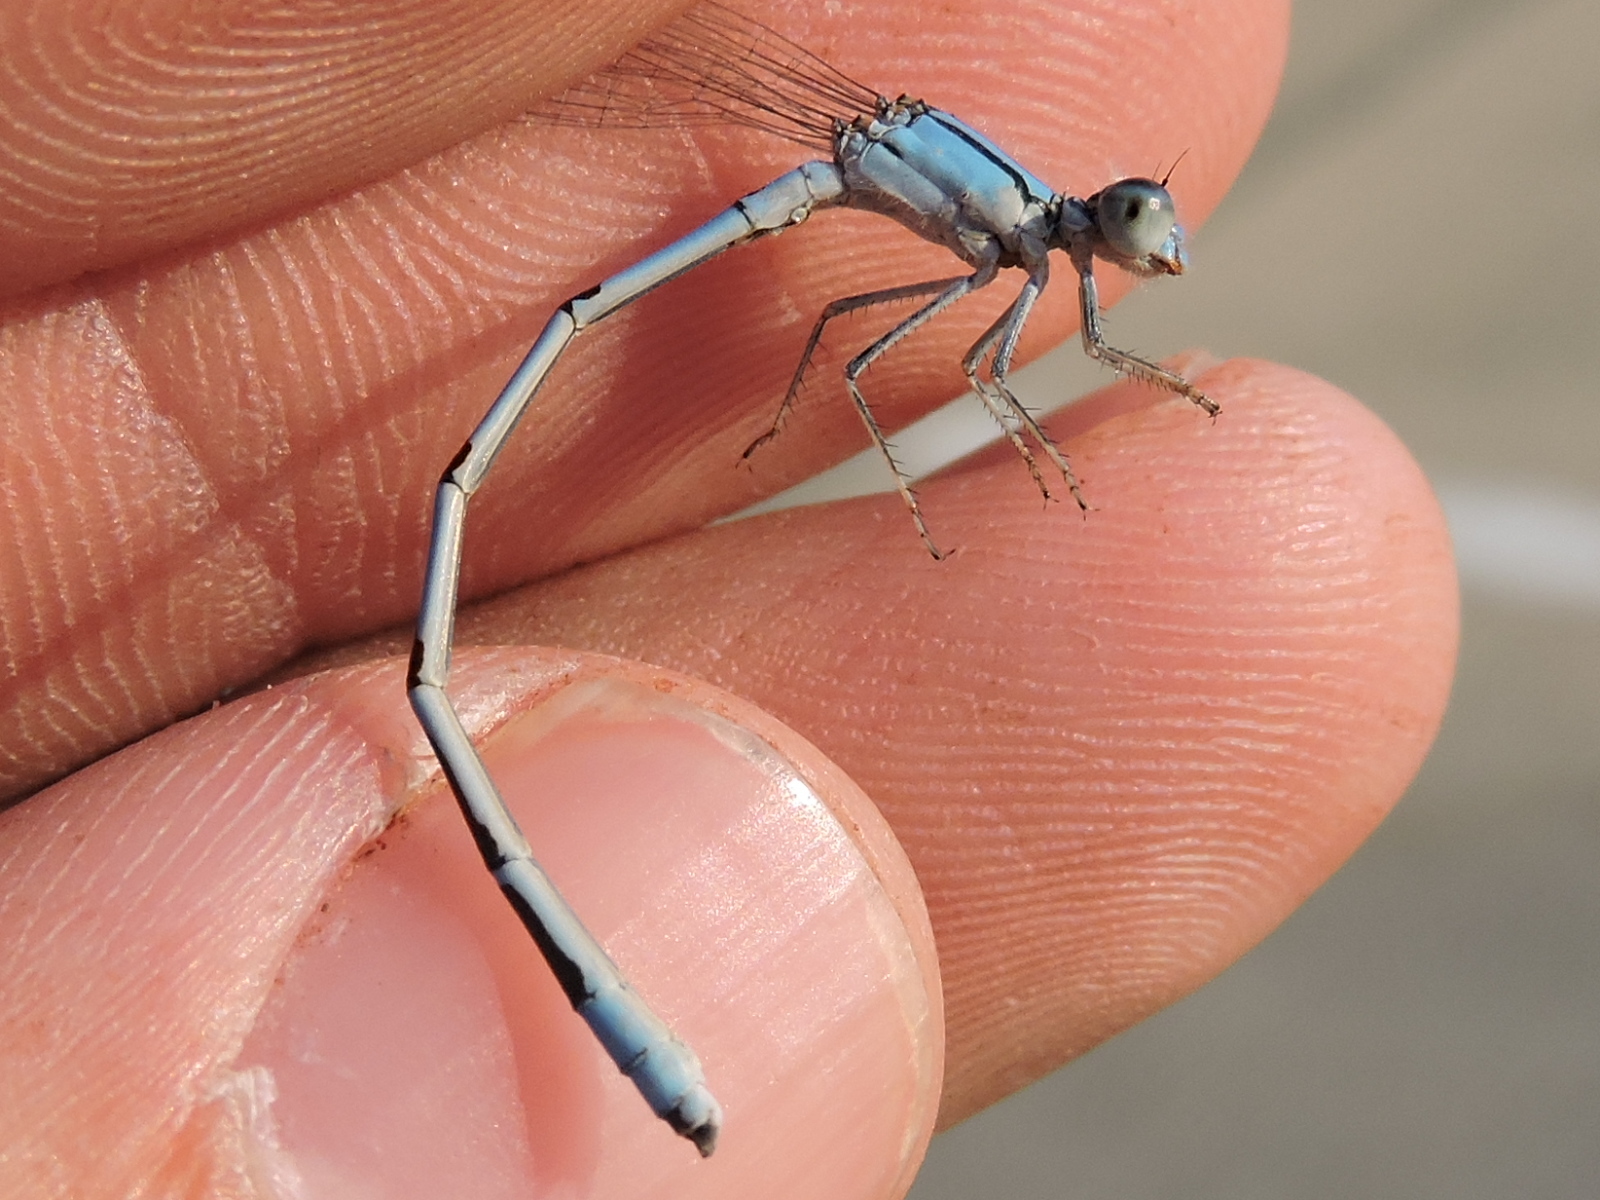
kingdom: Animalia
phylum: Arthropoda
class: Insecta
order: Odonata
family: Coenagrionidae
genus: Enallagma
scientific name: Enallagma civile
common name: Damselfly
